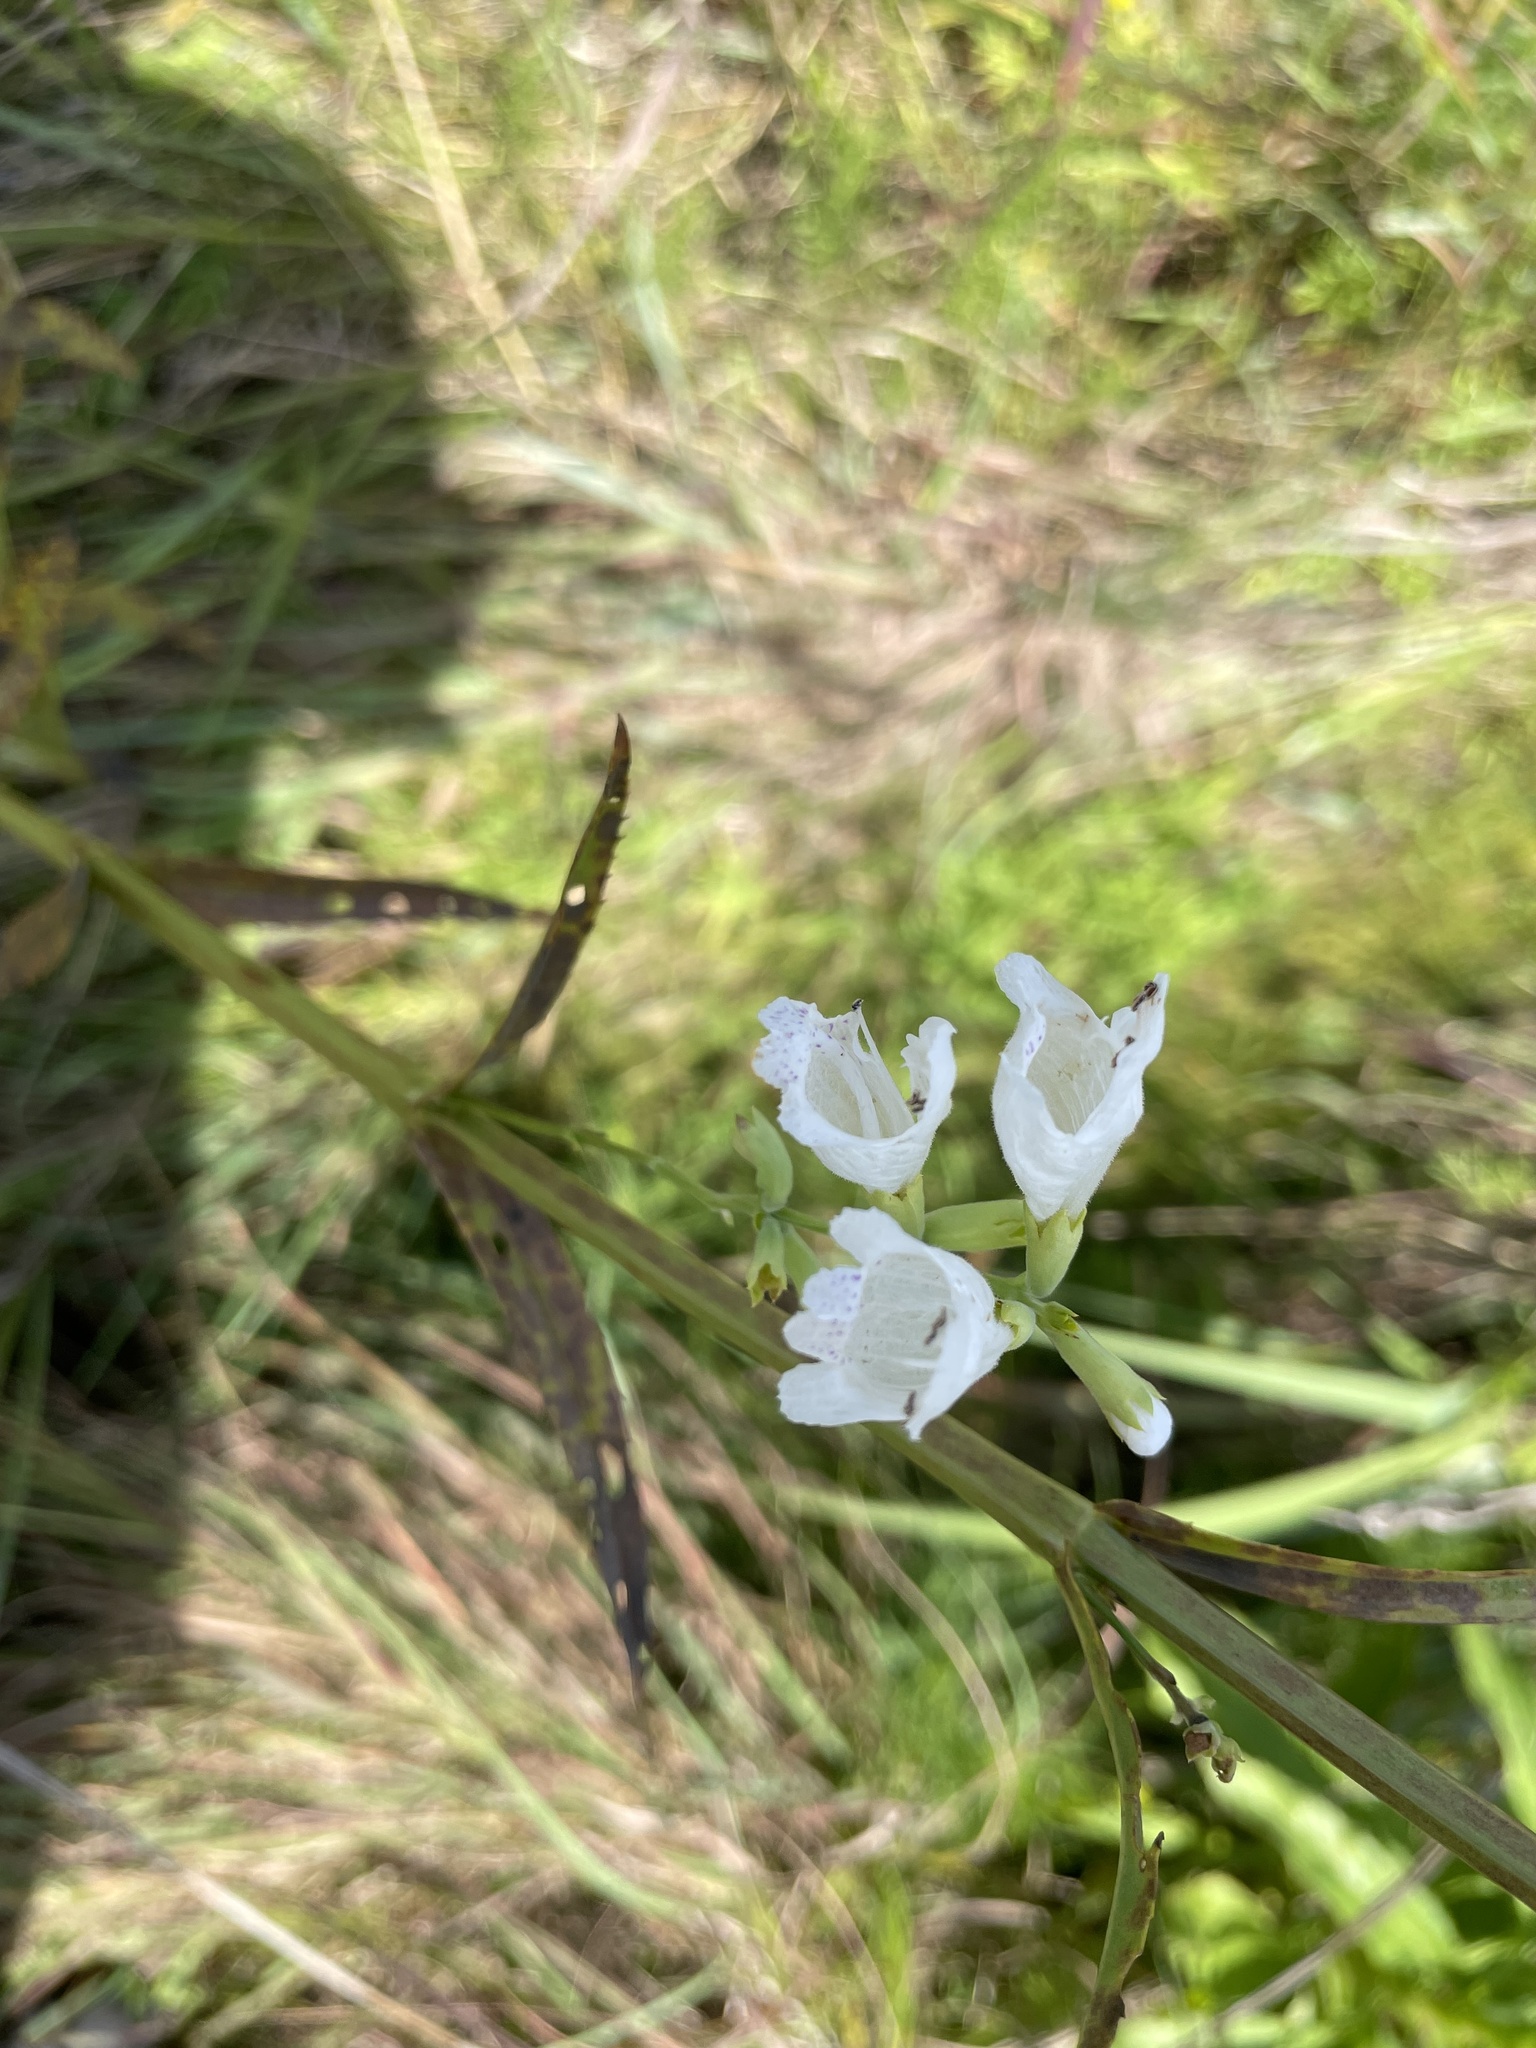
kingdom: Plantae
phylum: Tracheophyta
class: Magnoliopsida
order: Lamiales
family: Lamiaceae
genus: Physostegia
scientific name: Physostegia angustifolia
